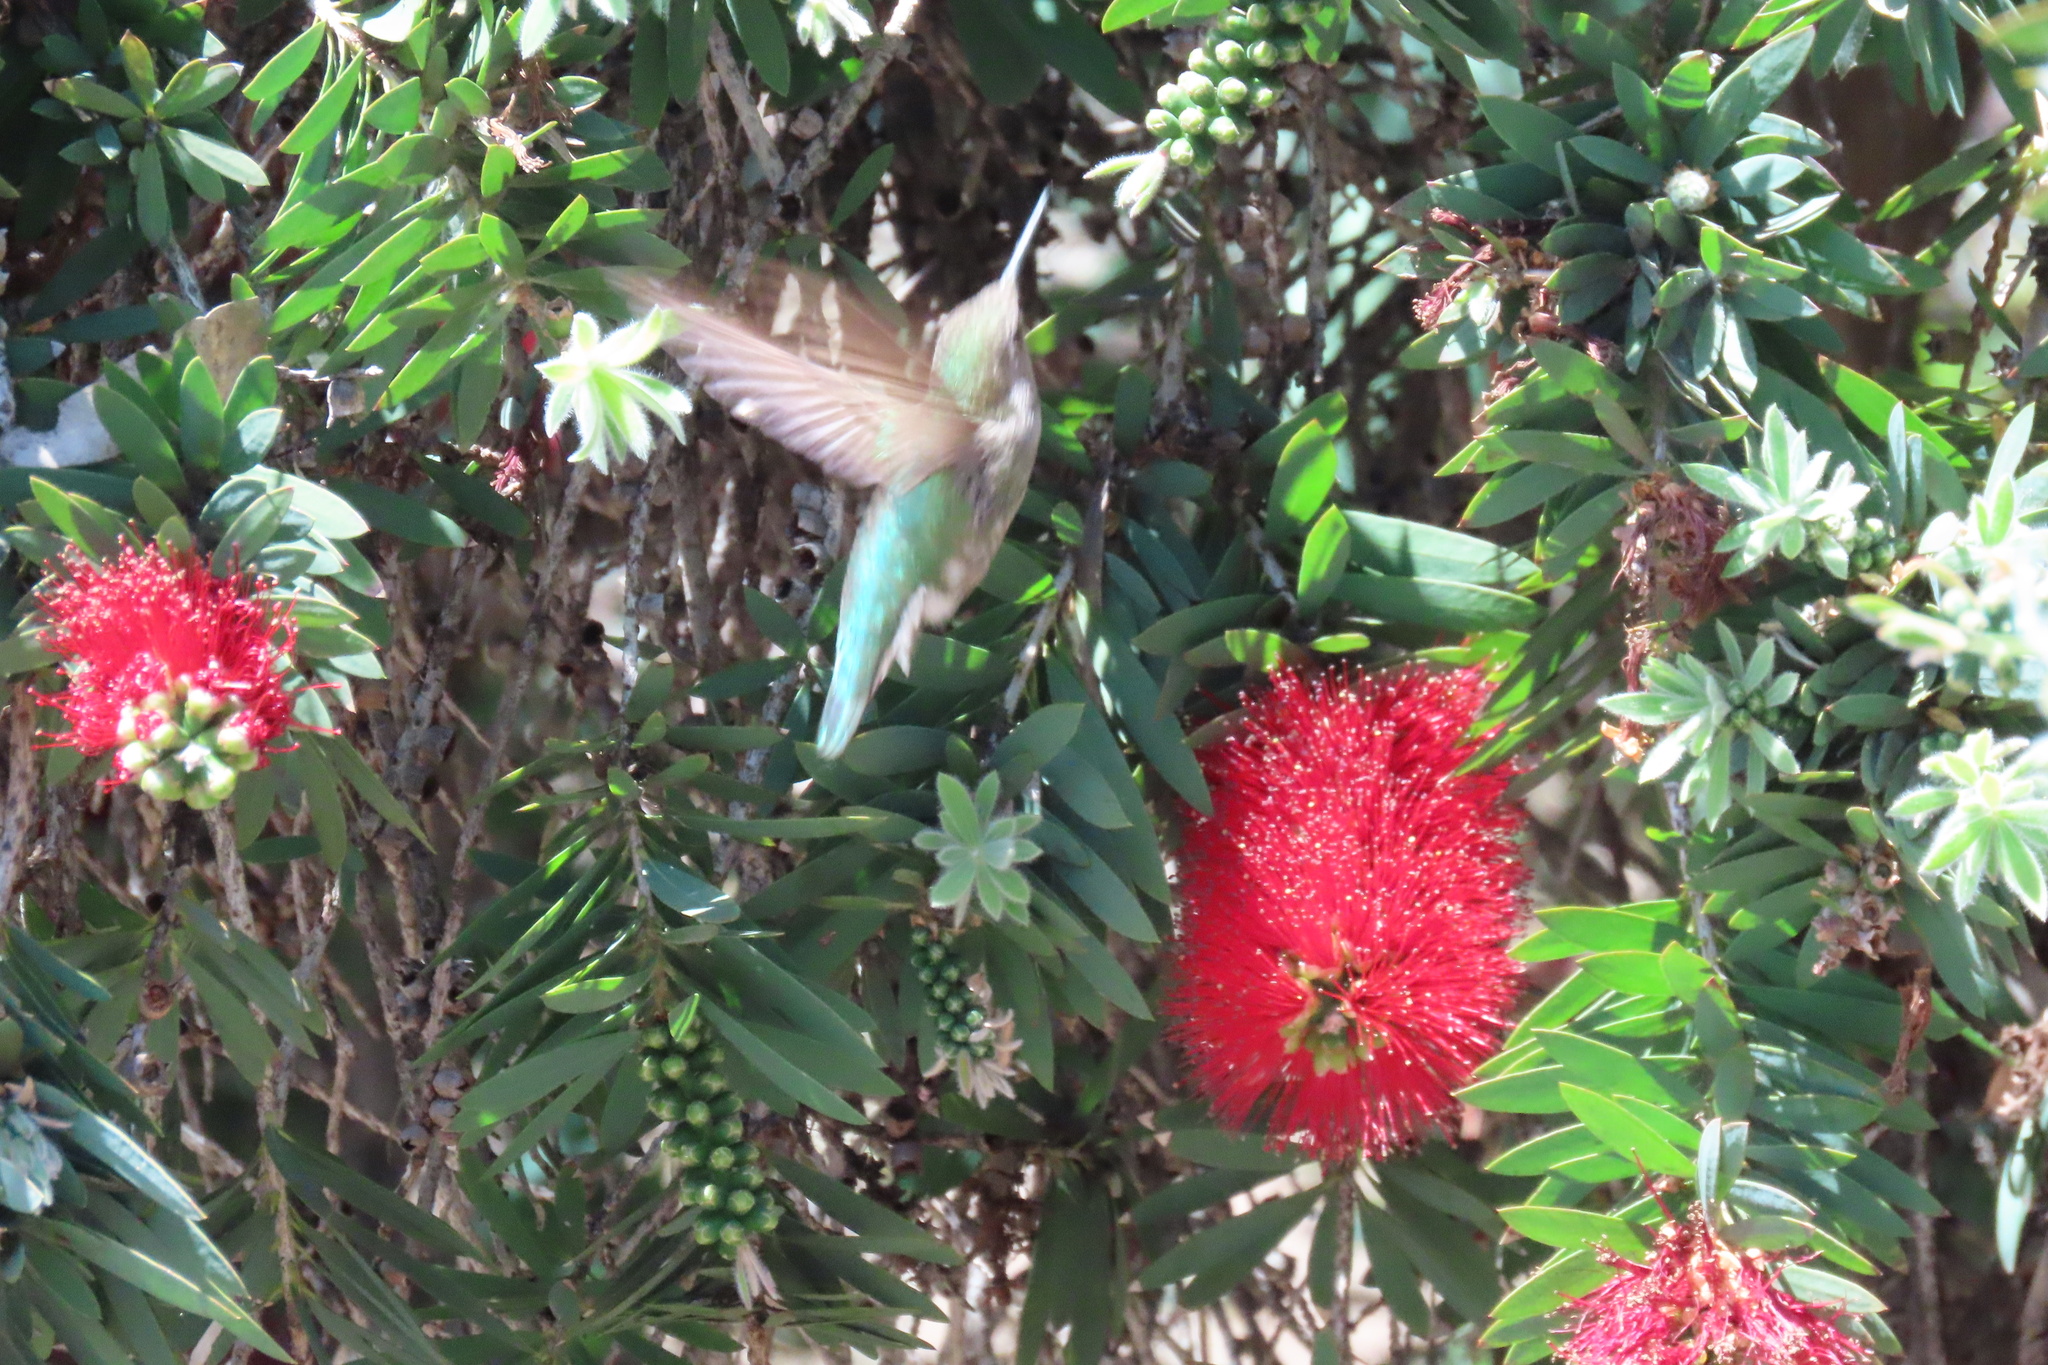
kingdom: Animalia
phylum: Chordata
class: Aves
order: Apodiformes
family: Trochilidae
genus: Calypte
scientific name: Calypte anna
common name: Anna's hummingbird
